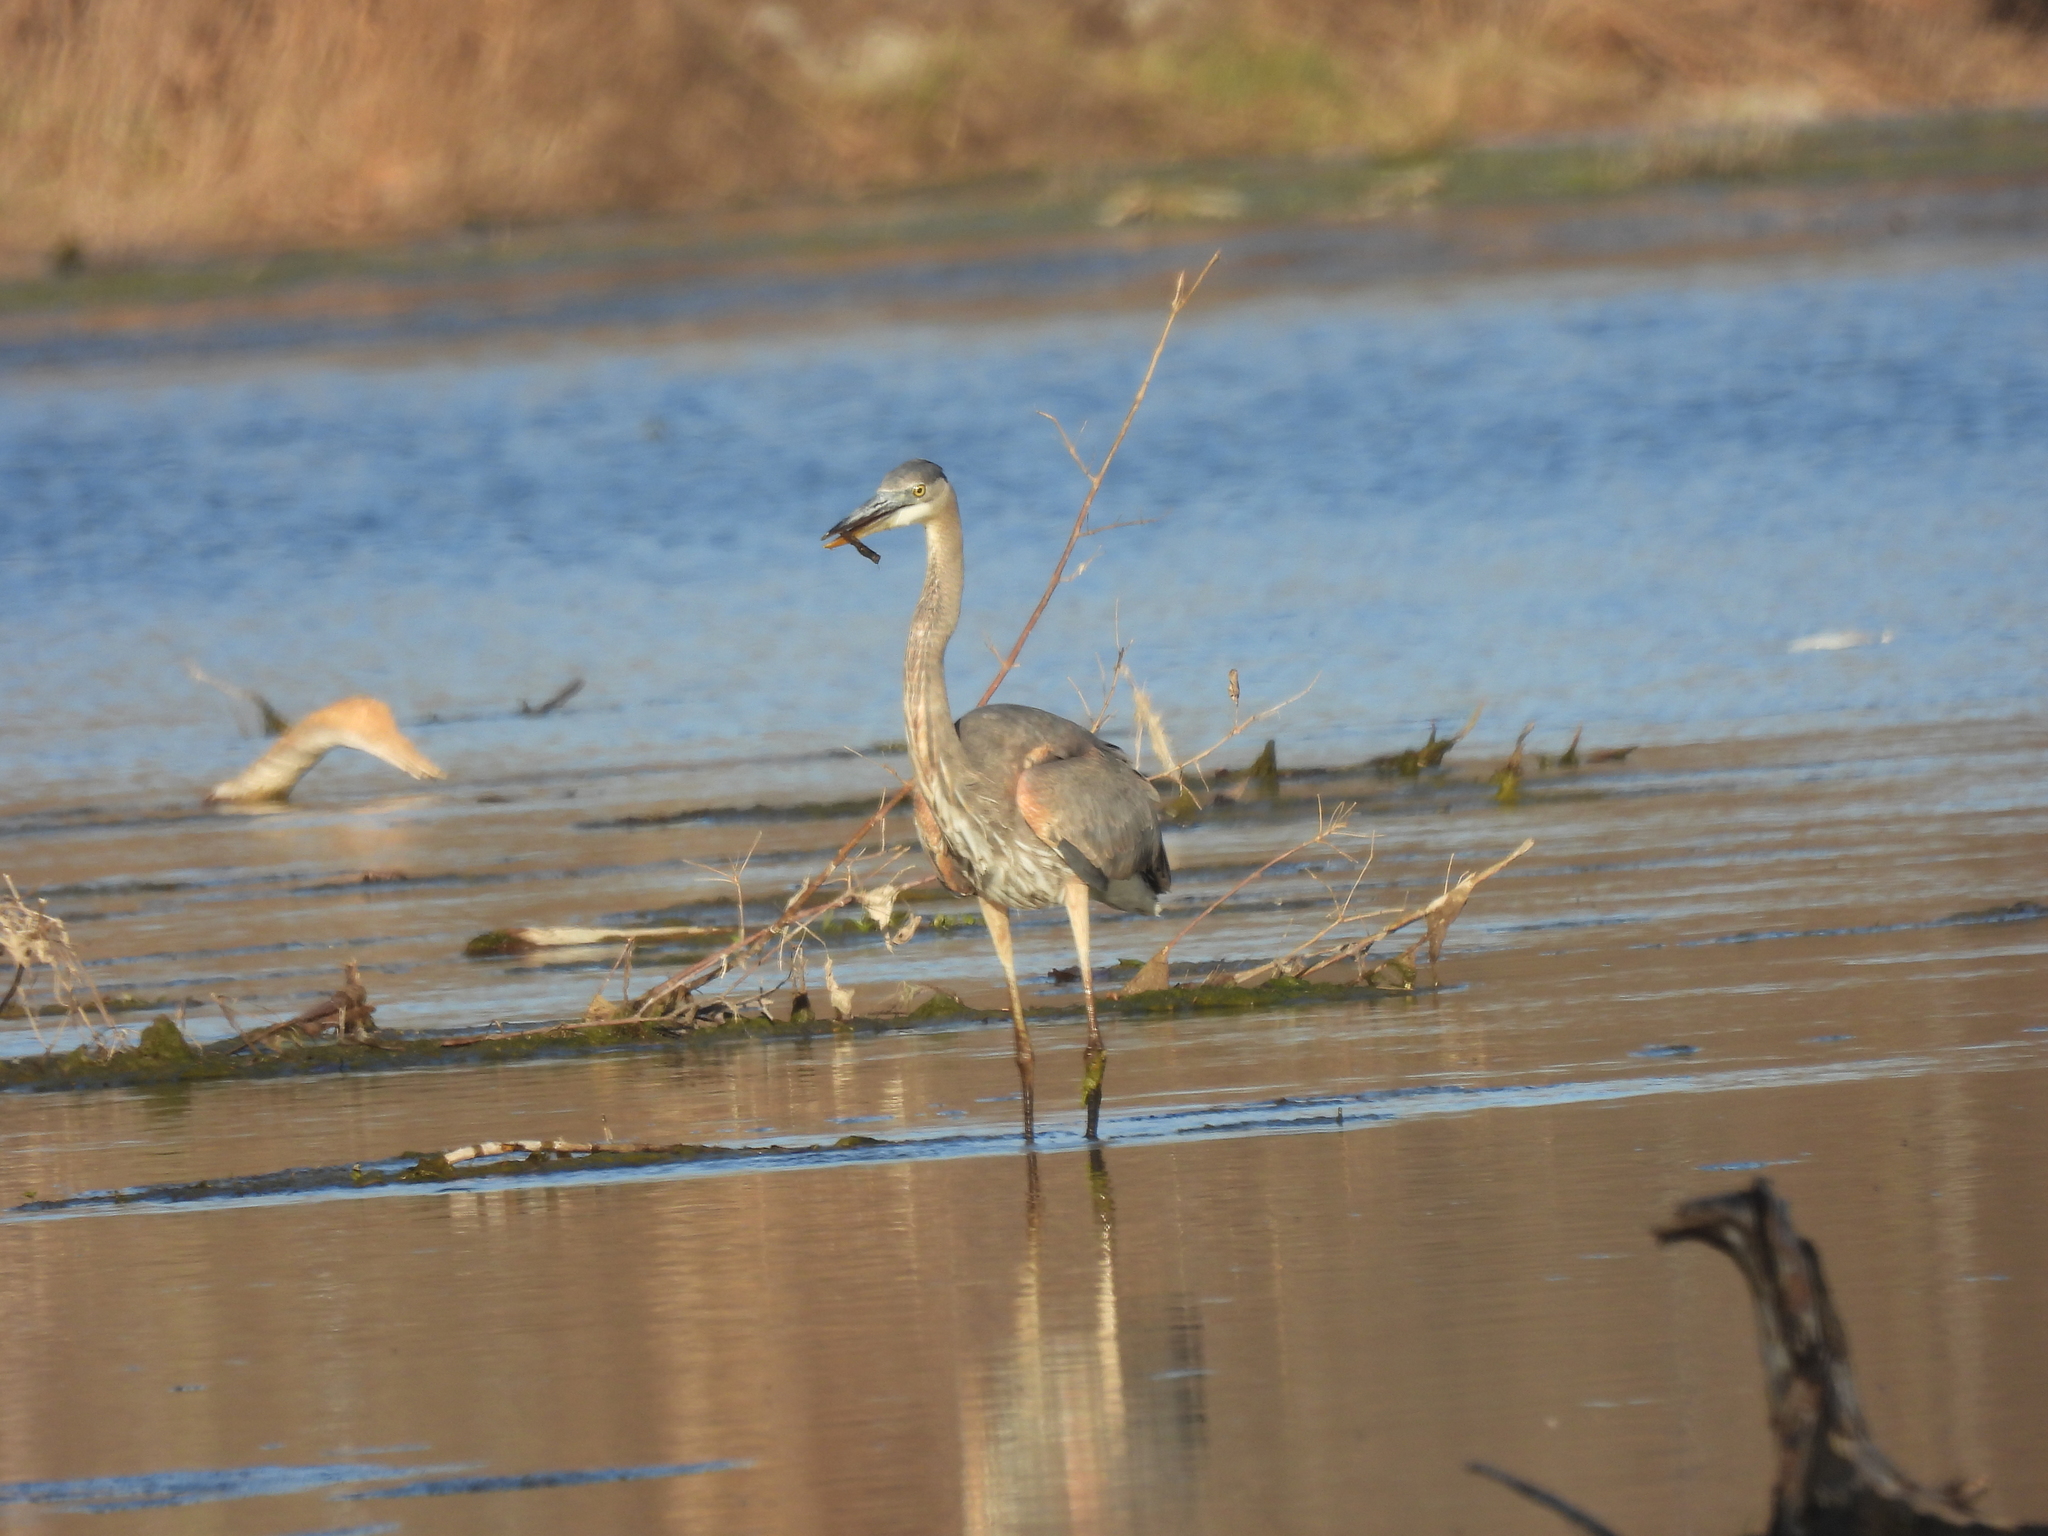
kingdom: Animalia
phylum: Chordata
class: Aves
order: Pelecaniformes
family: Ardeidae
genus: Ardea
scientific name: Ardea herodias
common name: Great blue heron
